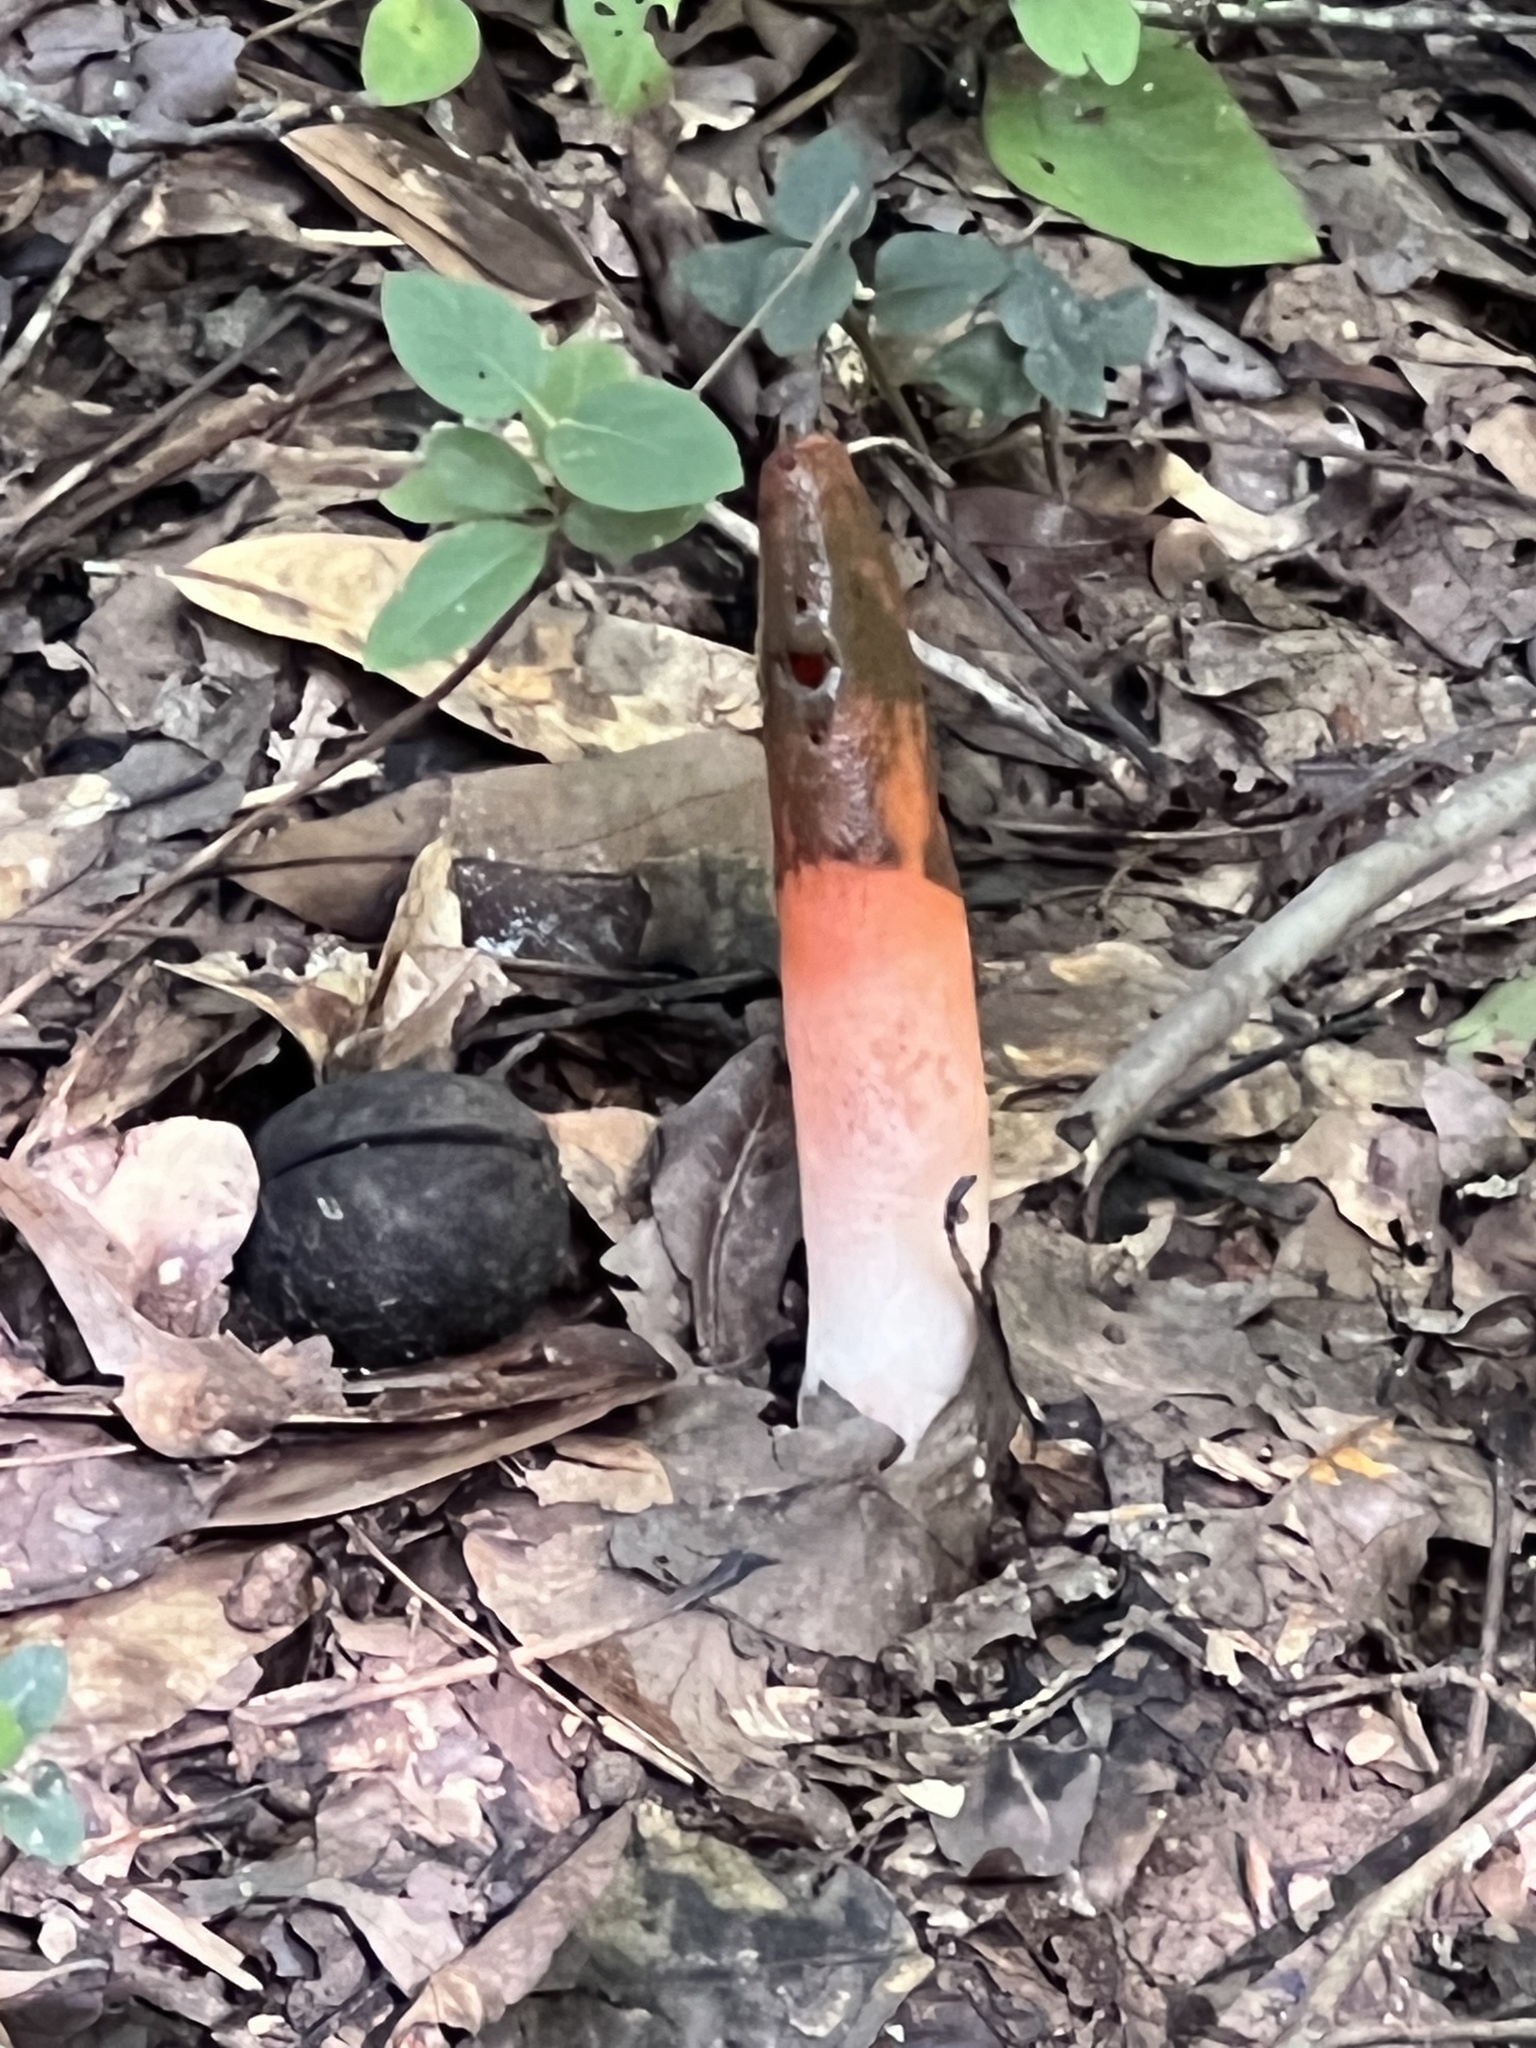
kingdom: Fungi
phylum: Basidiomycota
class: Agaricomycetes
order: Phallales
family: Phallaceae
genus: Mutinus
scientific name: Mutinus elegans
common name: Devil's dipstick
